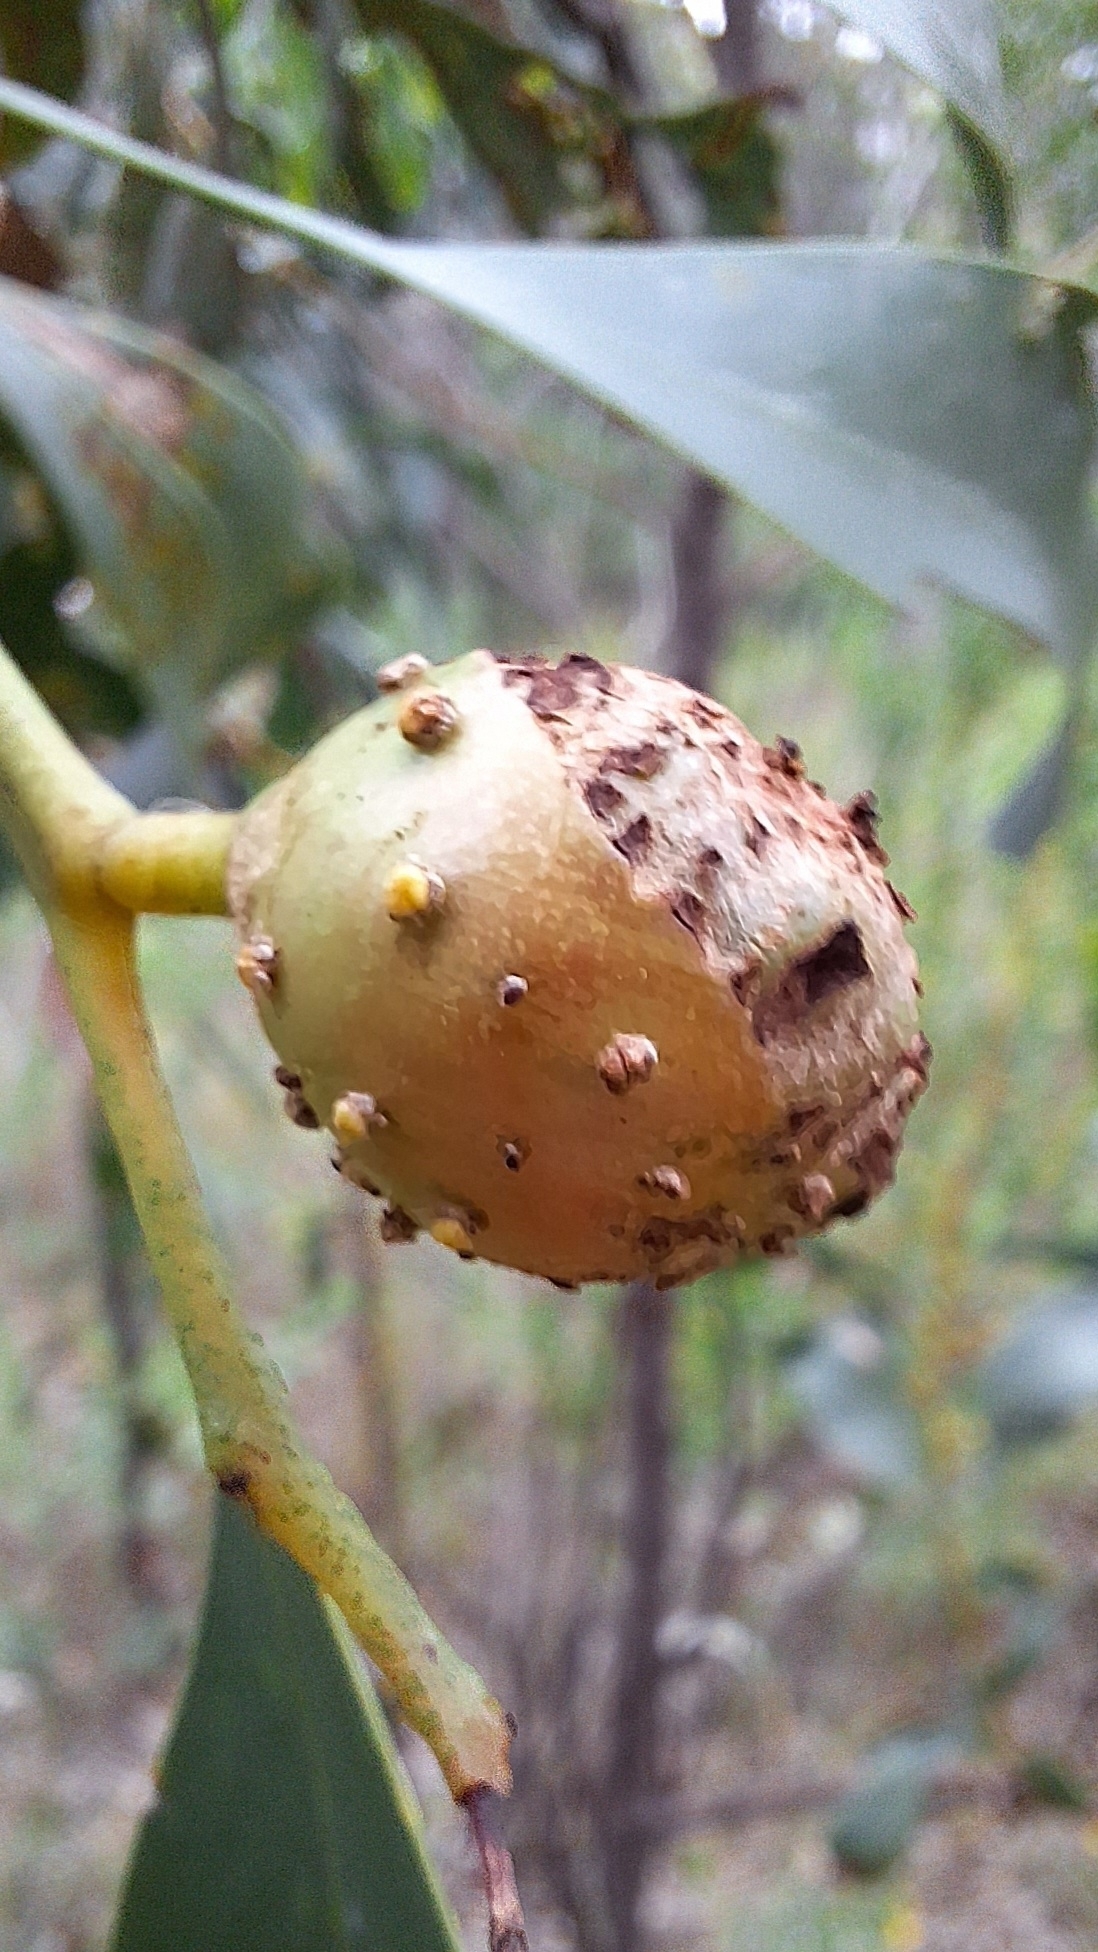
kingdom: Animalia
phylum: Arthropoda
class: Insecta
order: Hymenoptera
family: Pteromalidae
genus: Trichilogaster
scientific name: Trichilogaster signiventris
